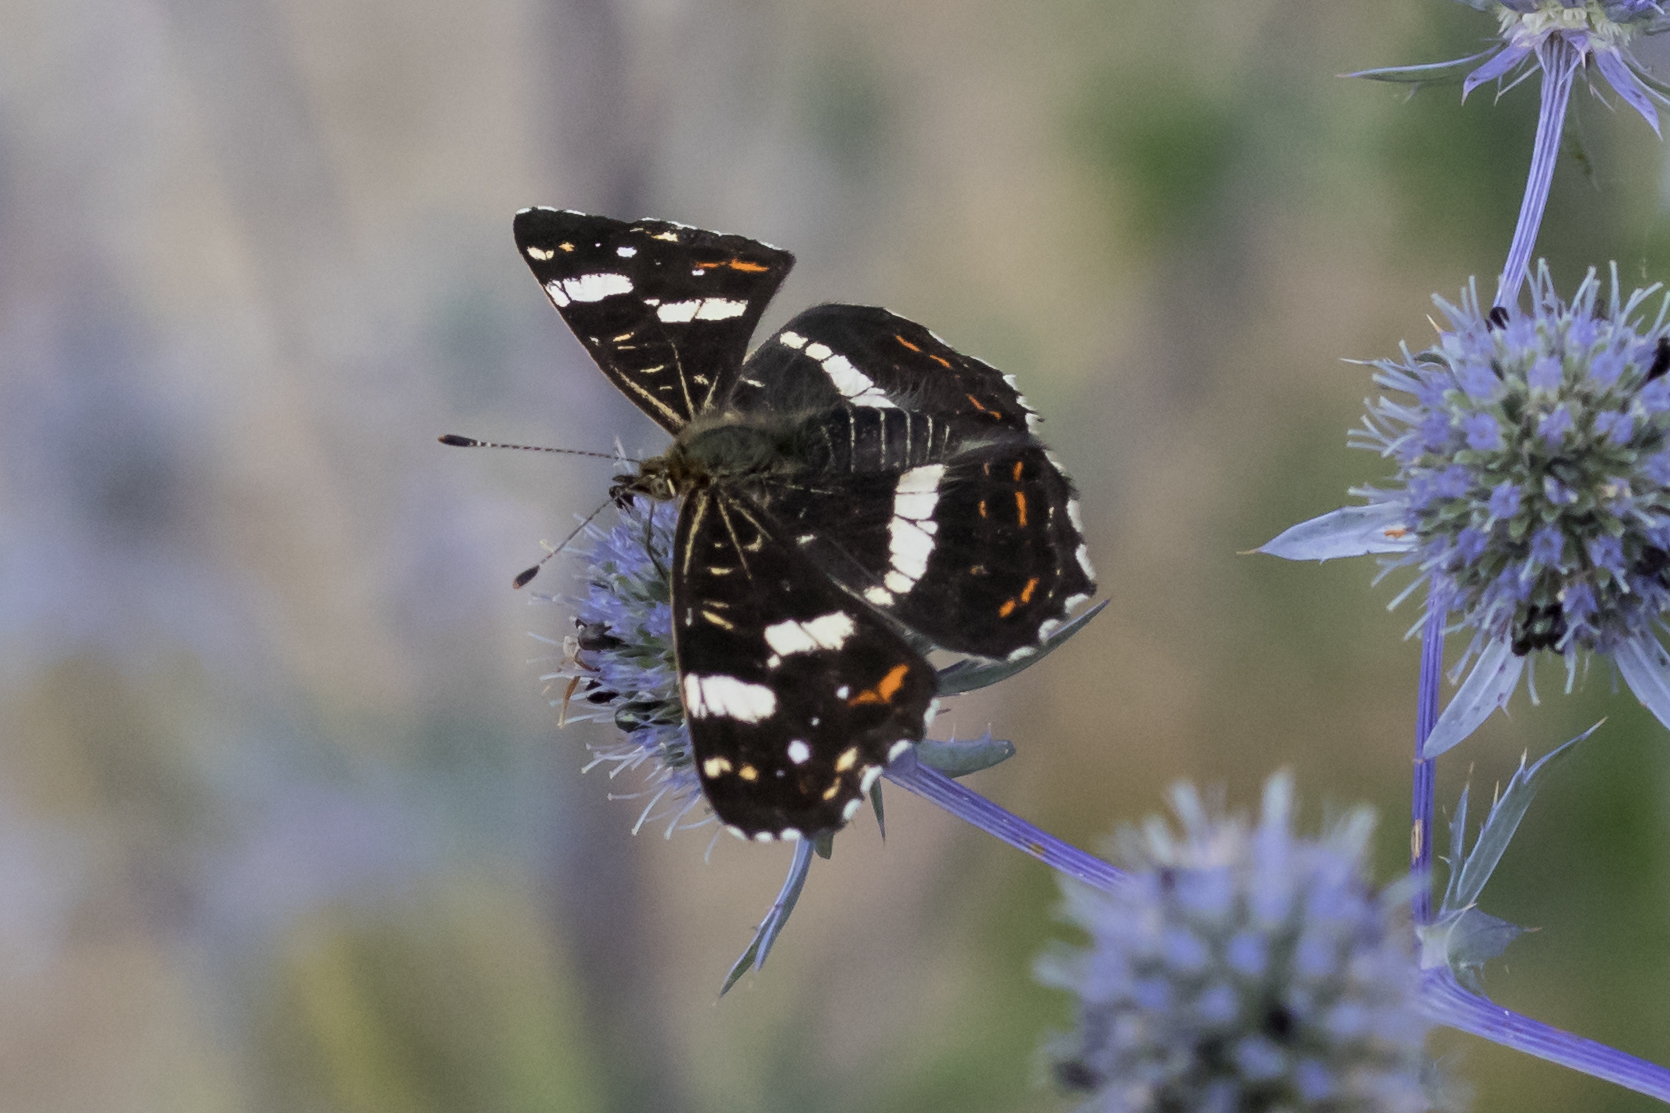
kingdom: Animalia
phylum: Arthropoda
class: Insecta
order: Lepidoptera
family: Nymphalidae
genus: Araschnia
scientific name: Araschnia levana
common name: Map butterfly
